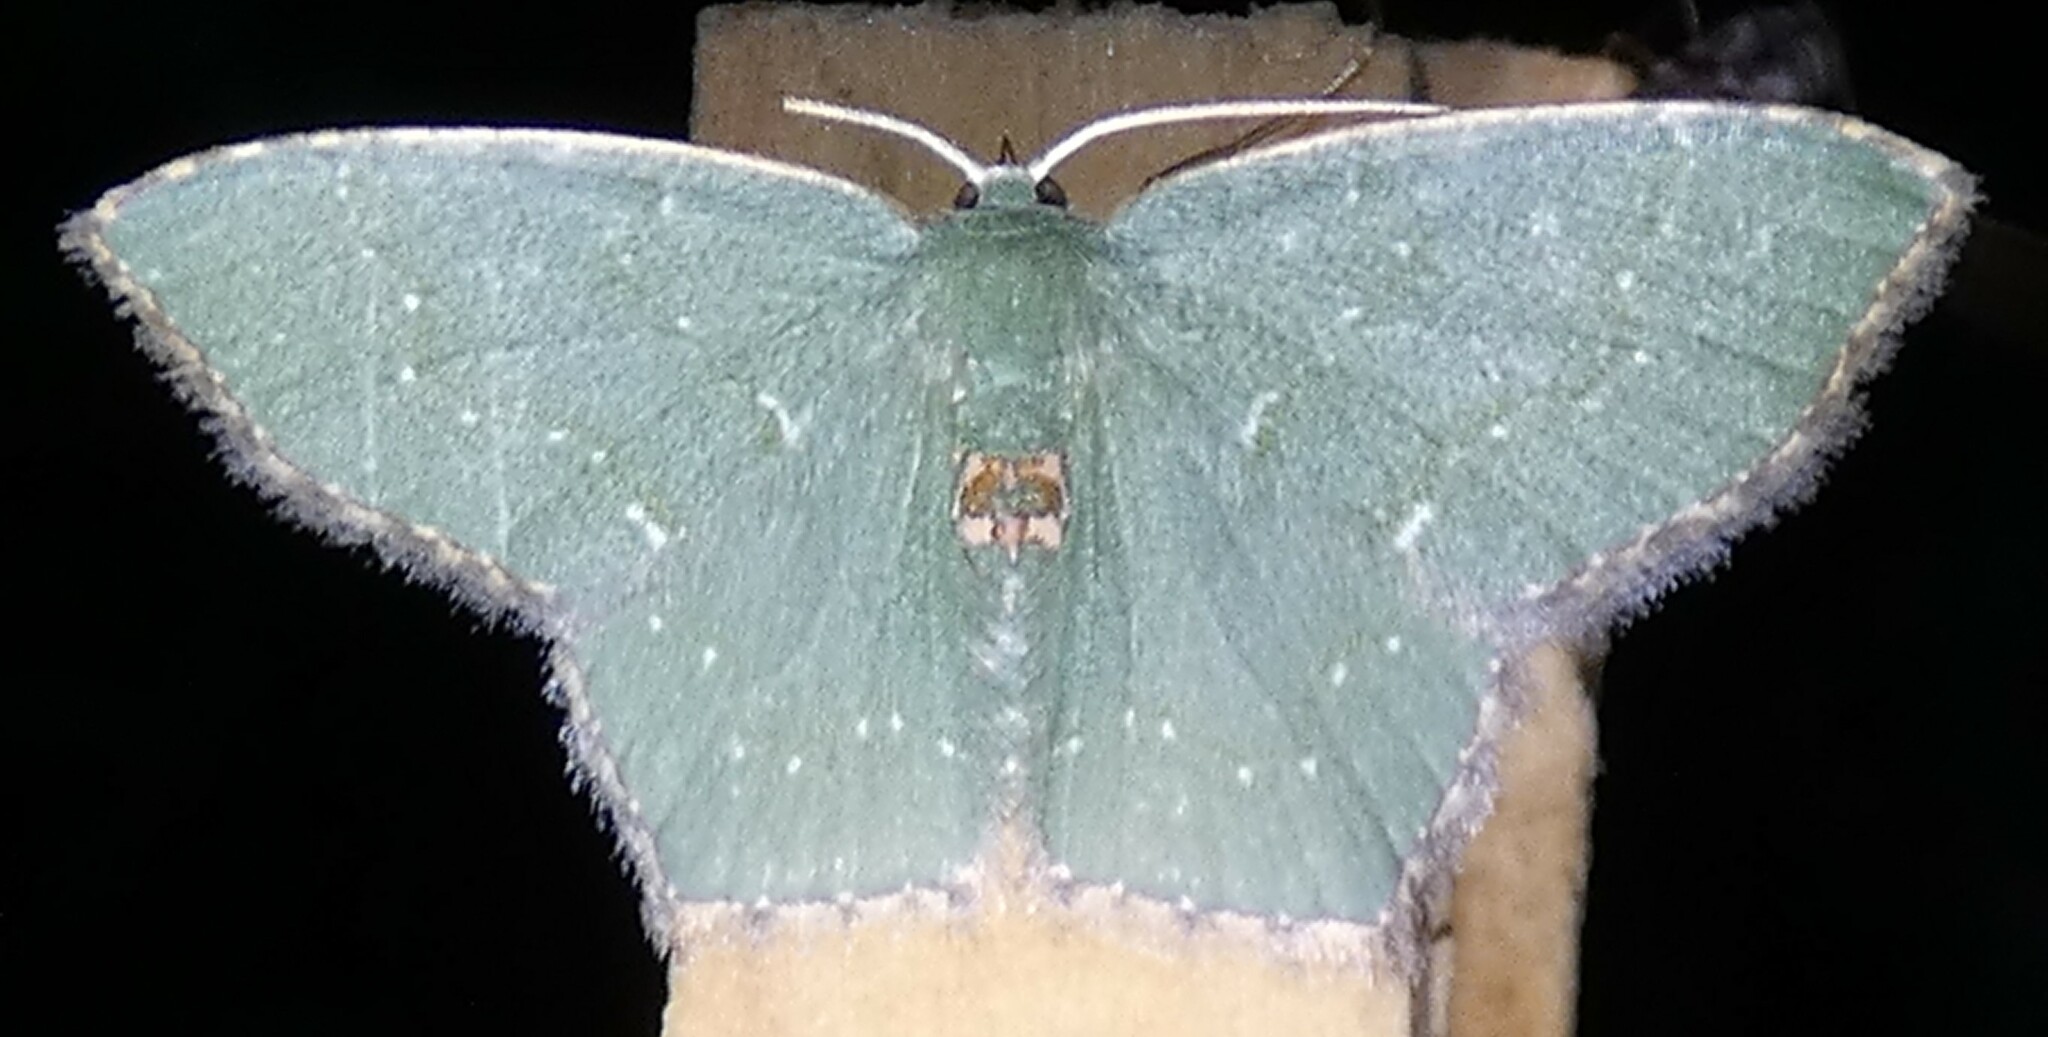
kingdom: Animalia
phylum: Arthropoda
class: Insecta
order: Lepidoptera
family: Geometridae
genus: Chloropteryx
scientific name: Chloropteryx tepperaria
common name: Angle winged emerald moth
